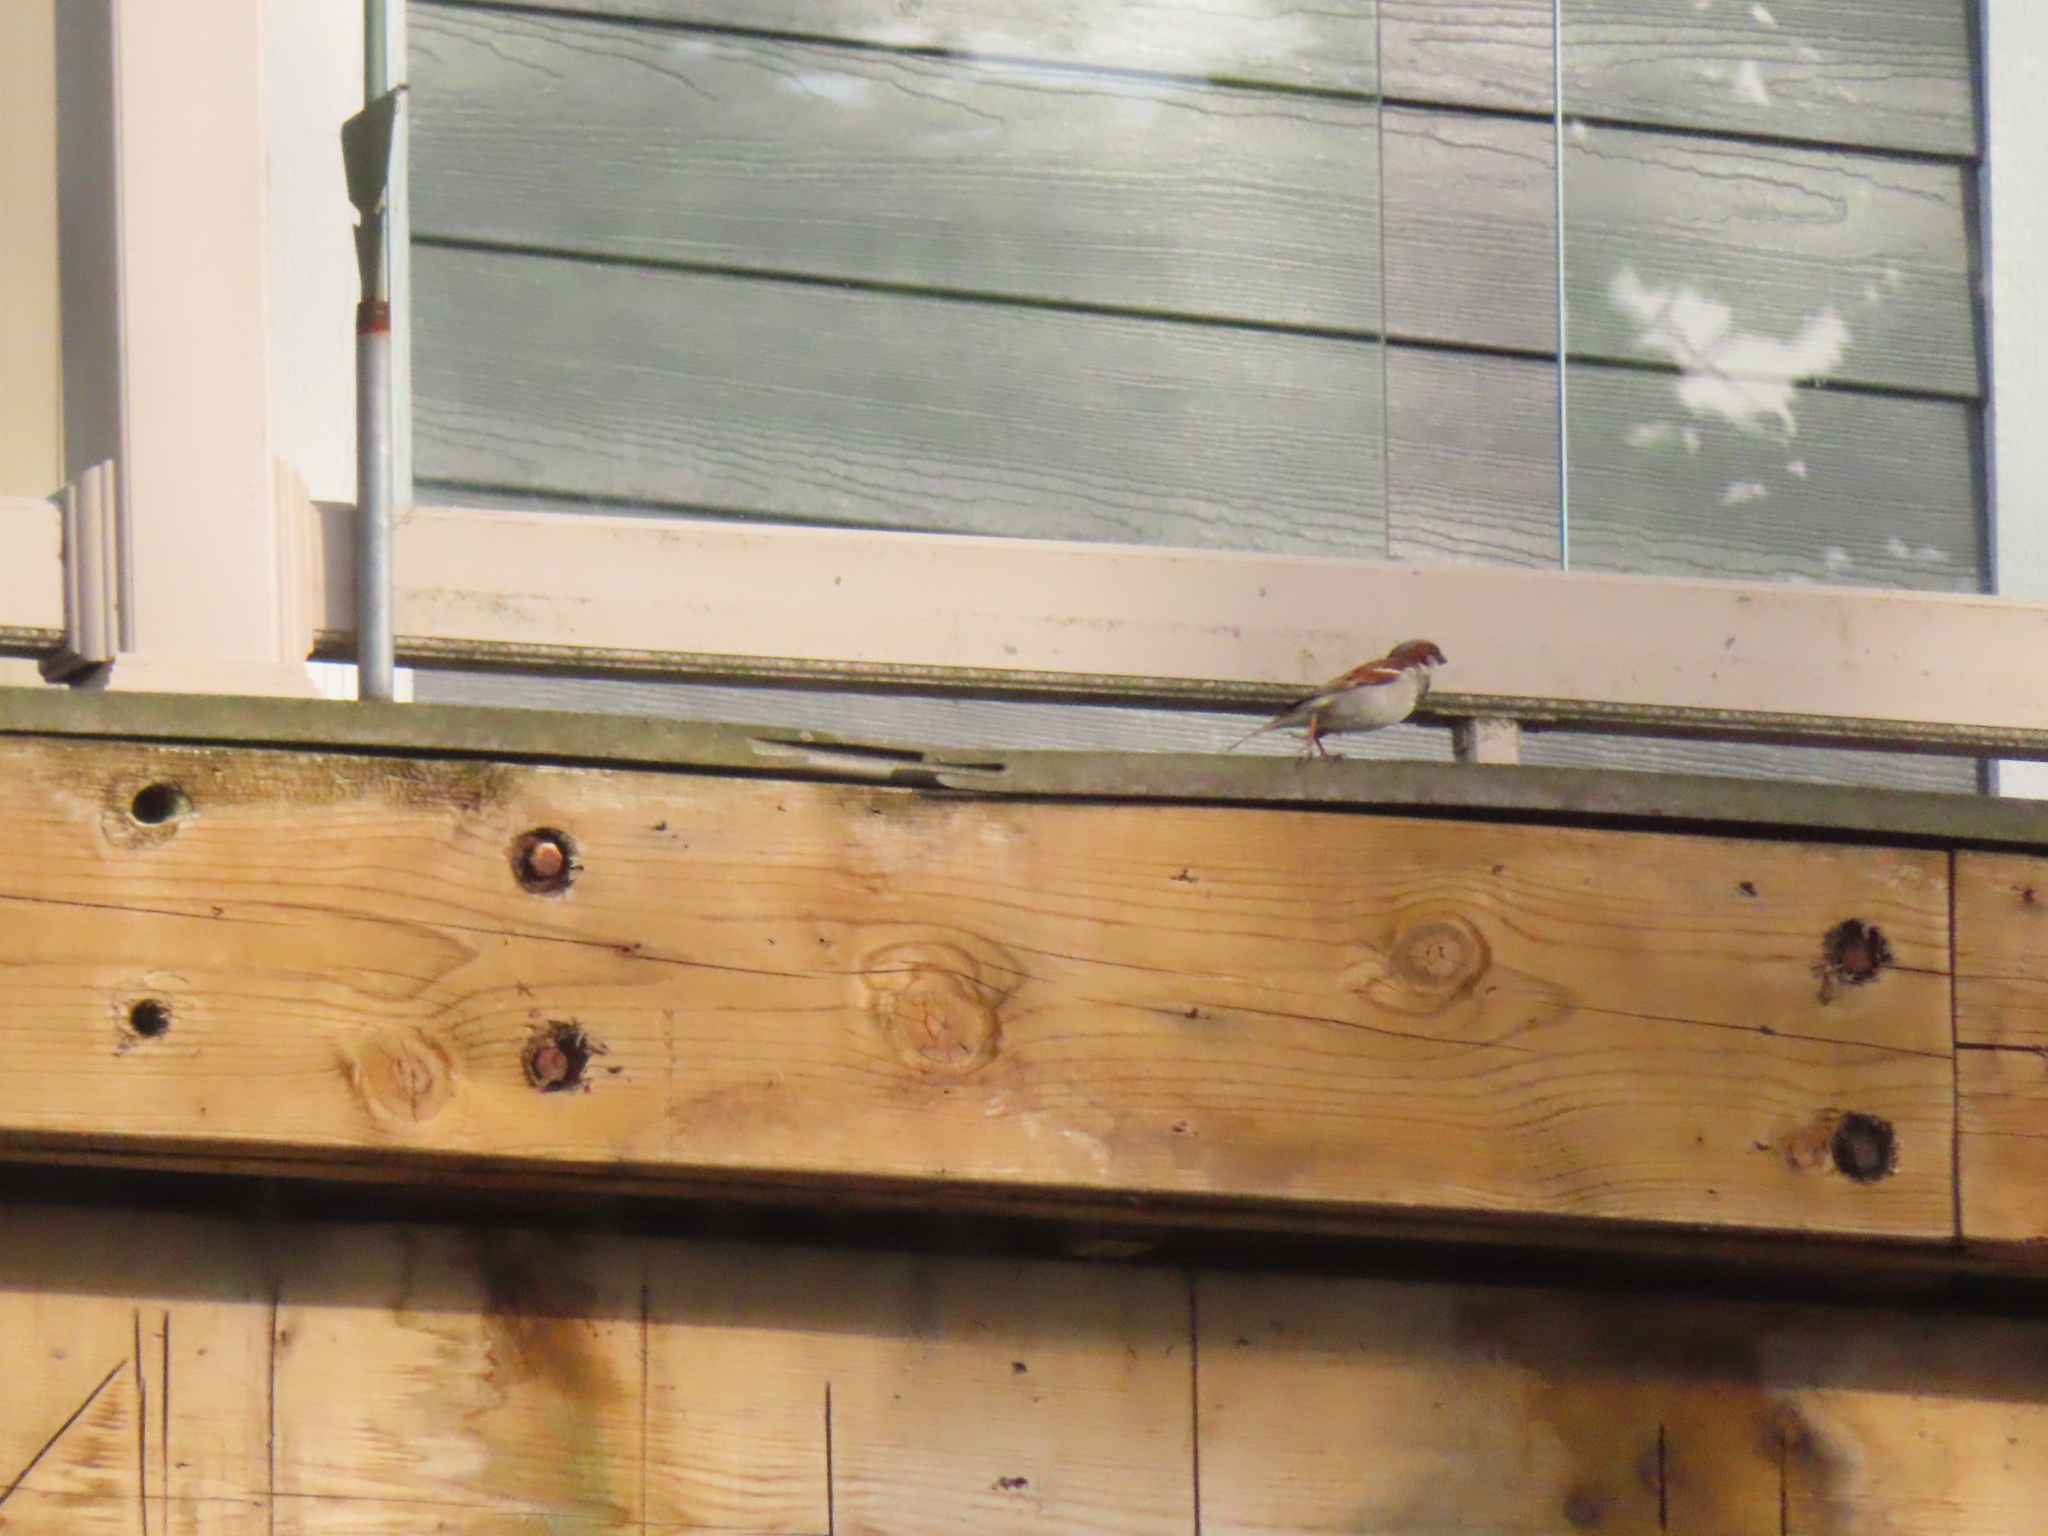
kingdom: Animalia
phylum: Chordata
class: Aves
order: Passeriformes
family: Passeridae
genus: Passer
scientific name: Passer domesticus
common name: House sparrow
